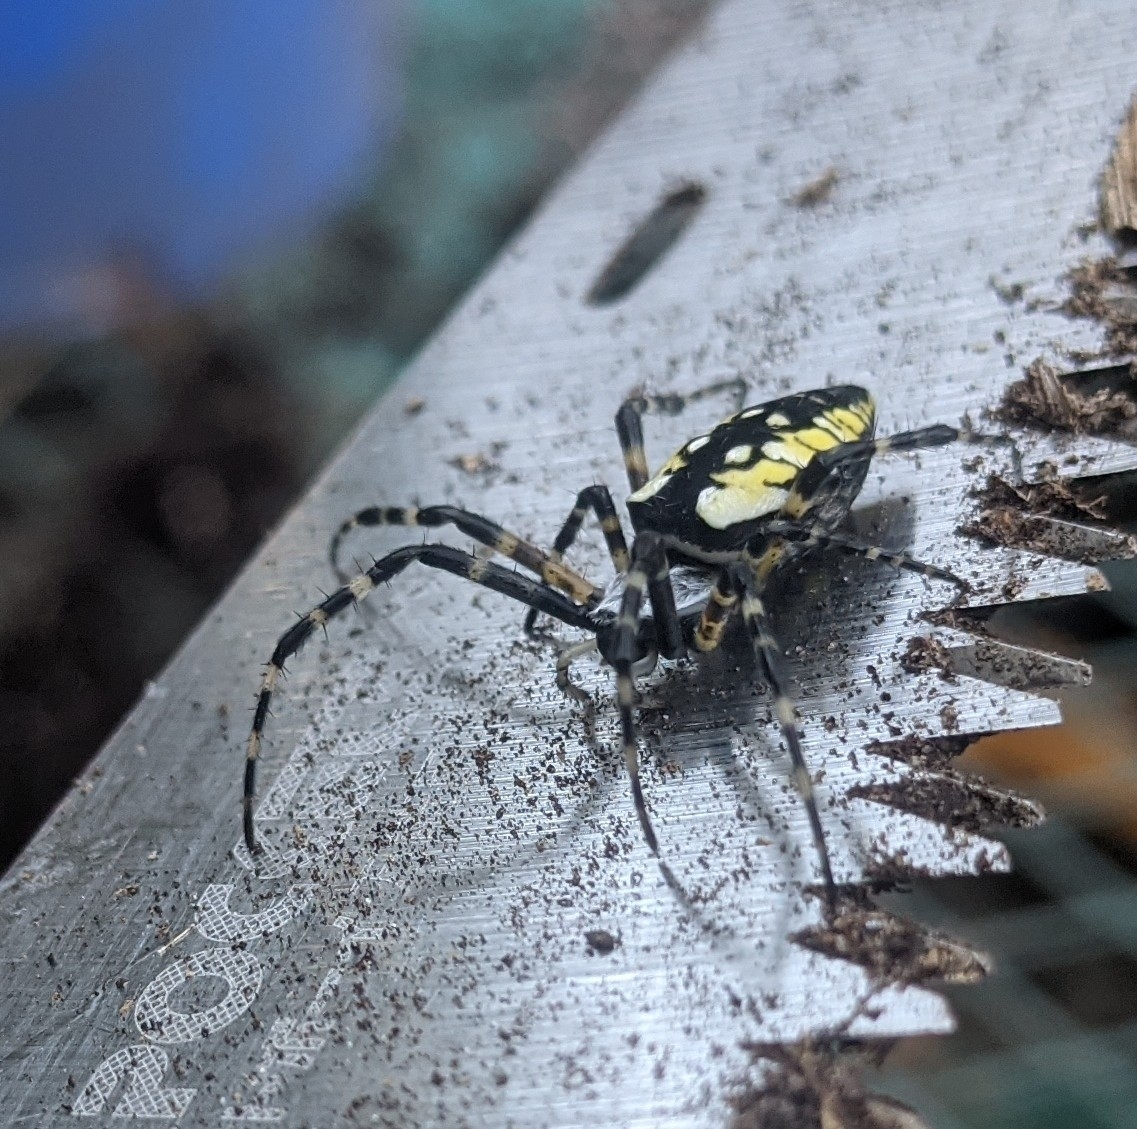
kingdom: Animalia
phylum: Arthropoda
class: Arachnida
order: Araneae
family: Araneidae
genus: Argiope
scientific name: Argiope aurantia
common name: Orb weavers
